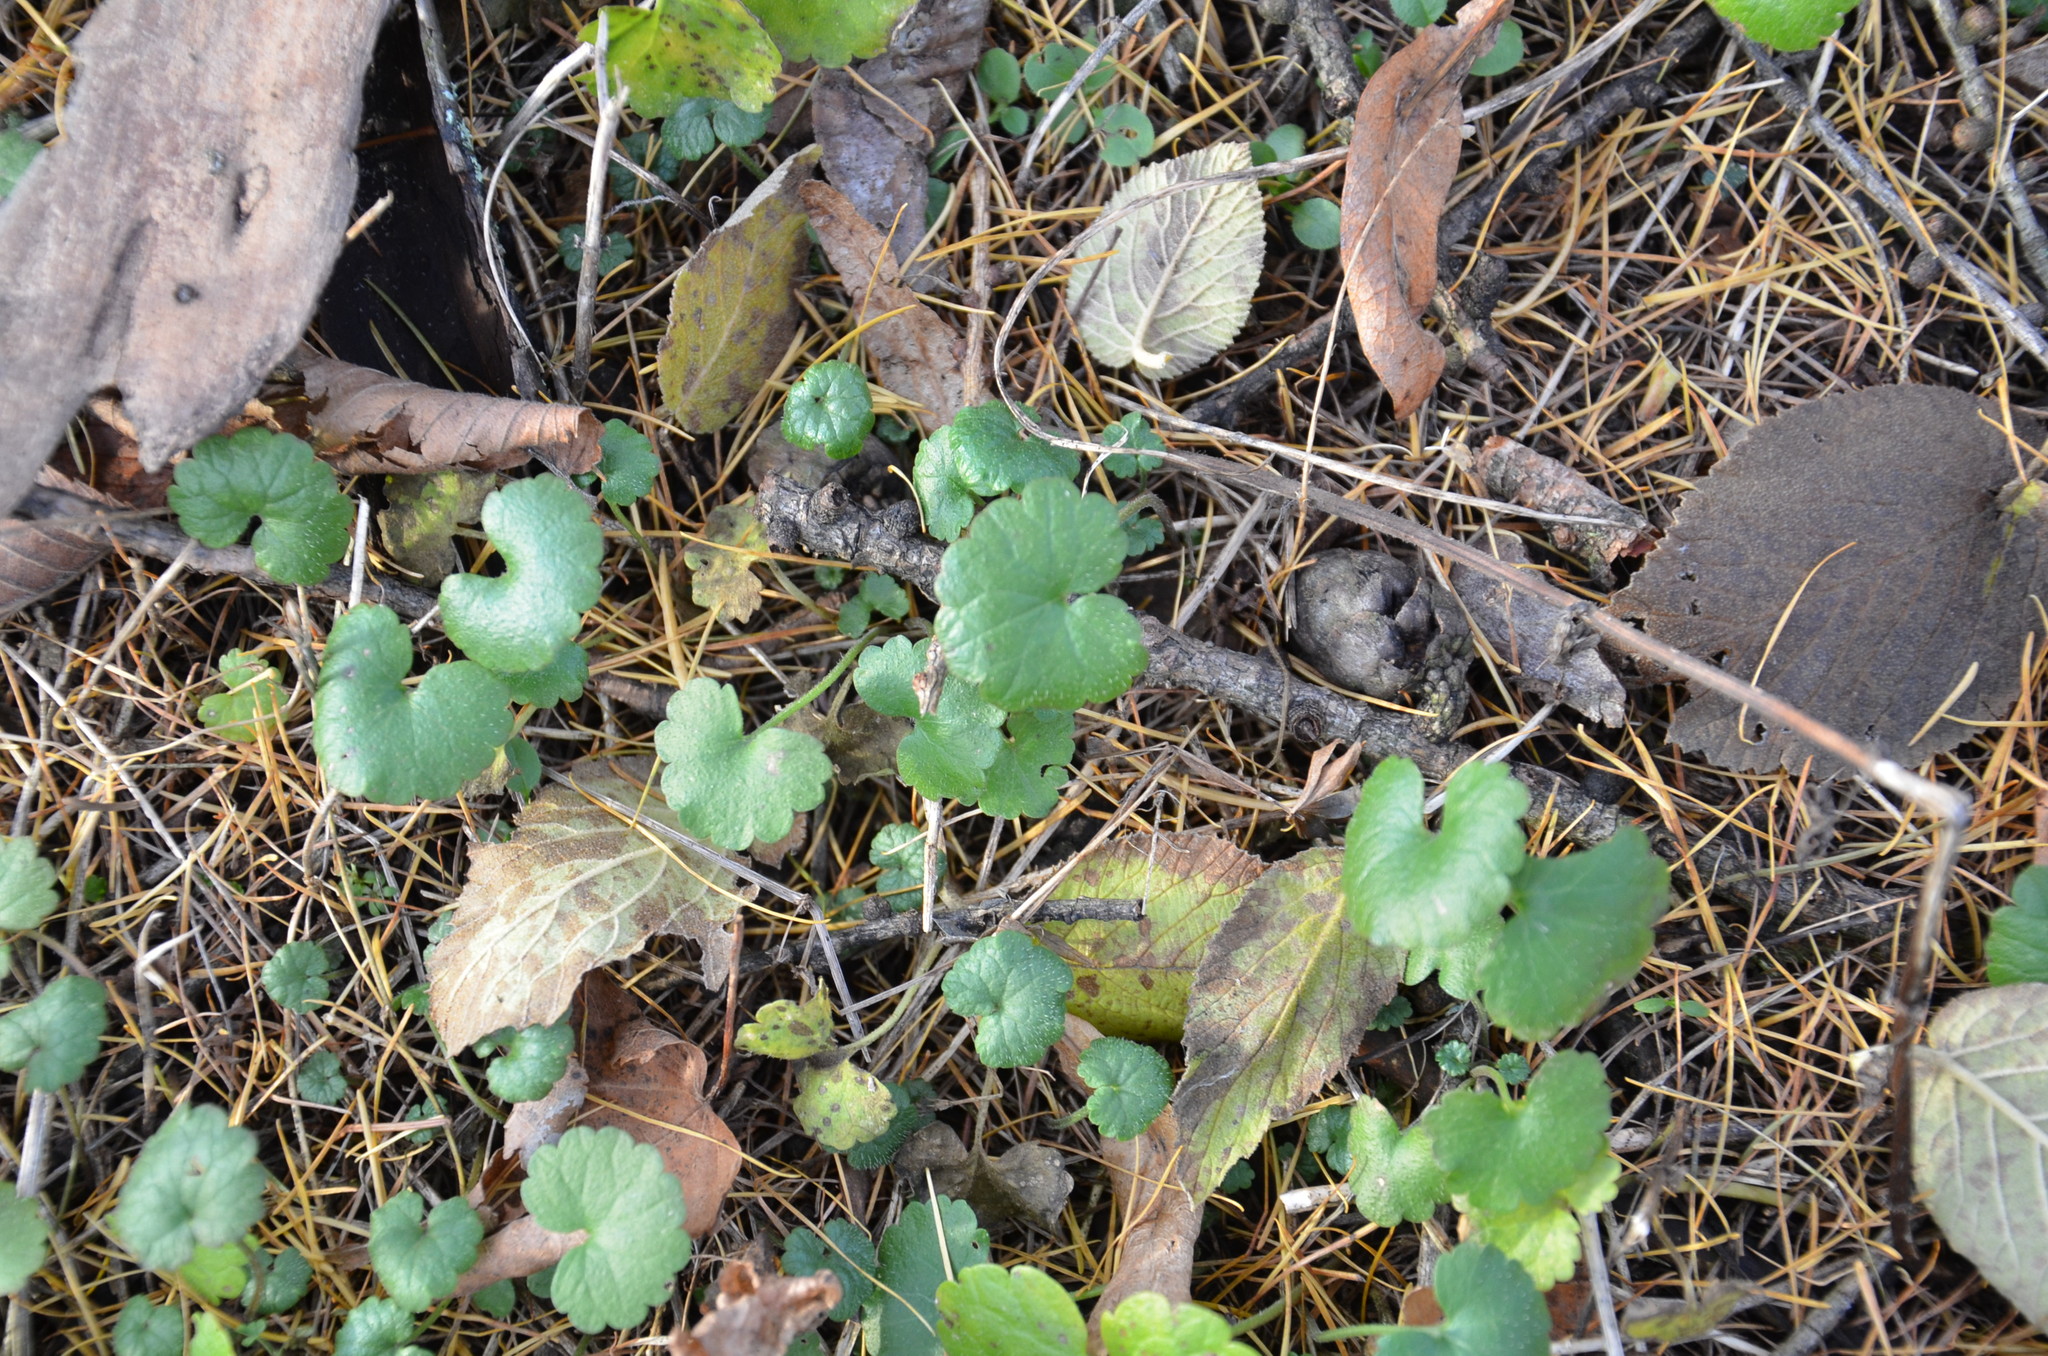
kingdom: Plantae
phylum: Tracheophyta
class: Magnoliopsida
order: Lamiales
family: Lamiaceae
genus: Glechoma
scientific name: Glechoma hederacea
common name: Ground ivy
